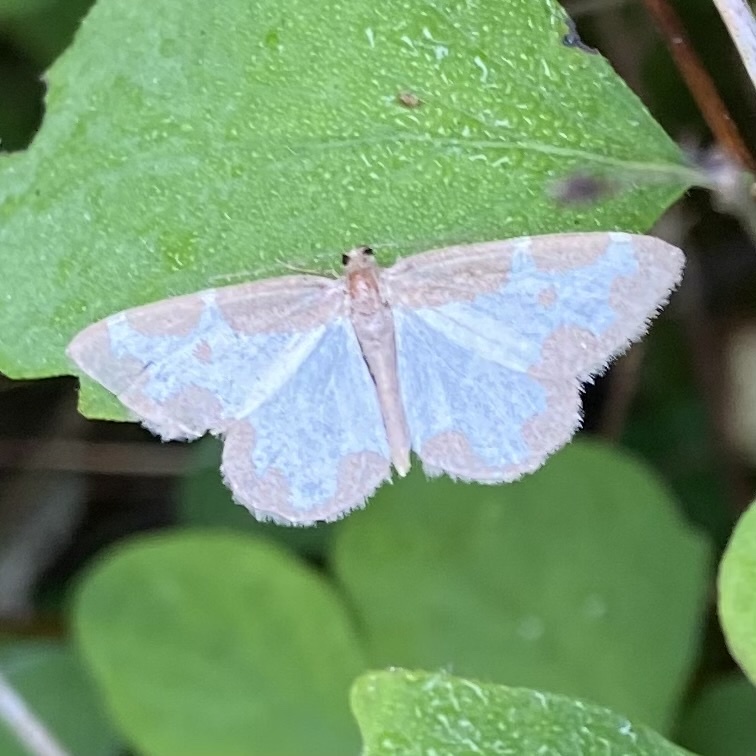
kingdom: Animalia
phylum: Arthropoda
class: Insecta
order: Lepidoptera
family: Geometridae
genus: Lomaspilis
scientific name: Lomaspilis marginata
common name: Clouded border
